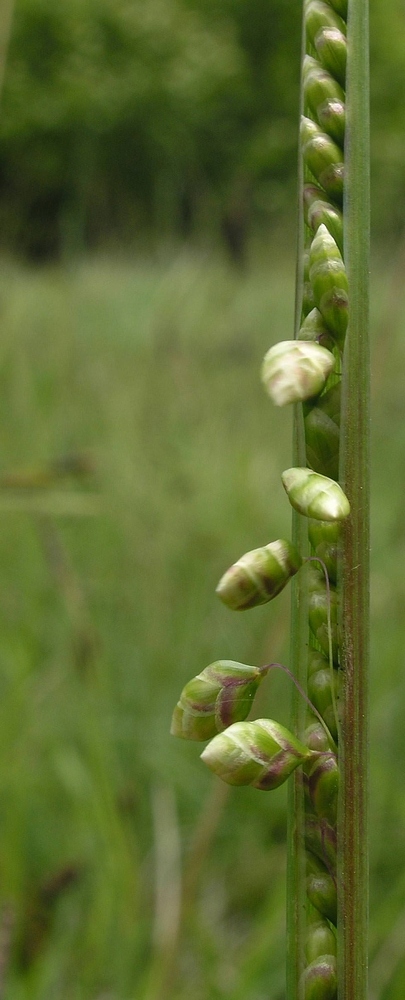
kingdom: Plantae
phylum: Tracheophyta
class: Liliopsida
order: Poales
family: Poaceae
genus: Briza
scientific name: Briza media
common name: Quaking grass
